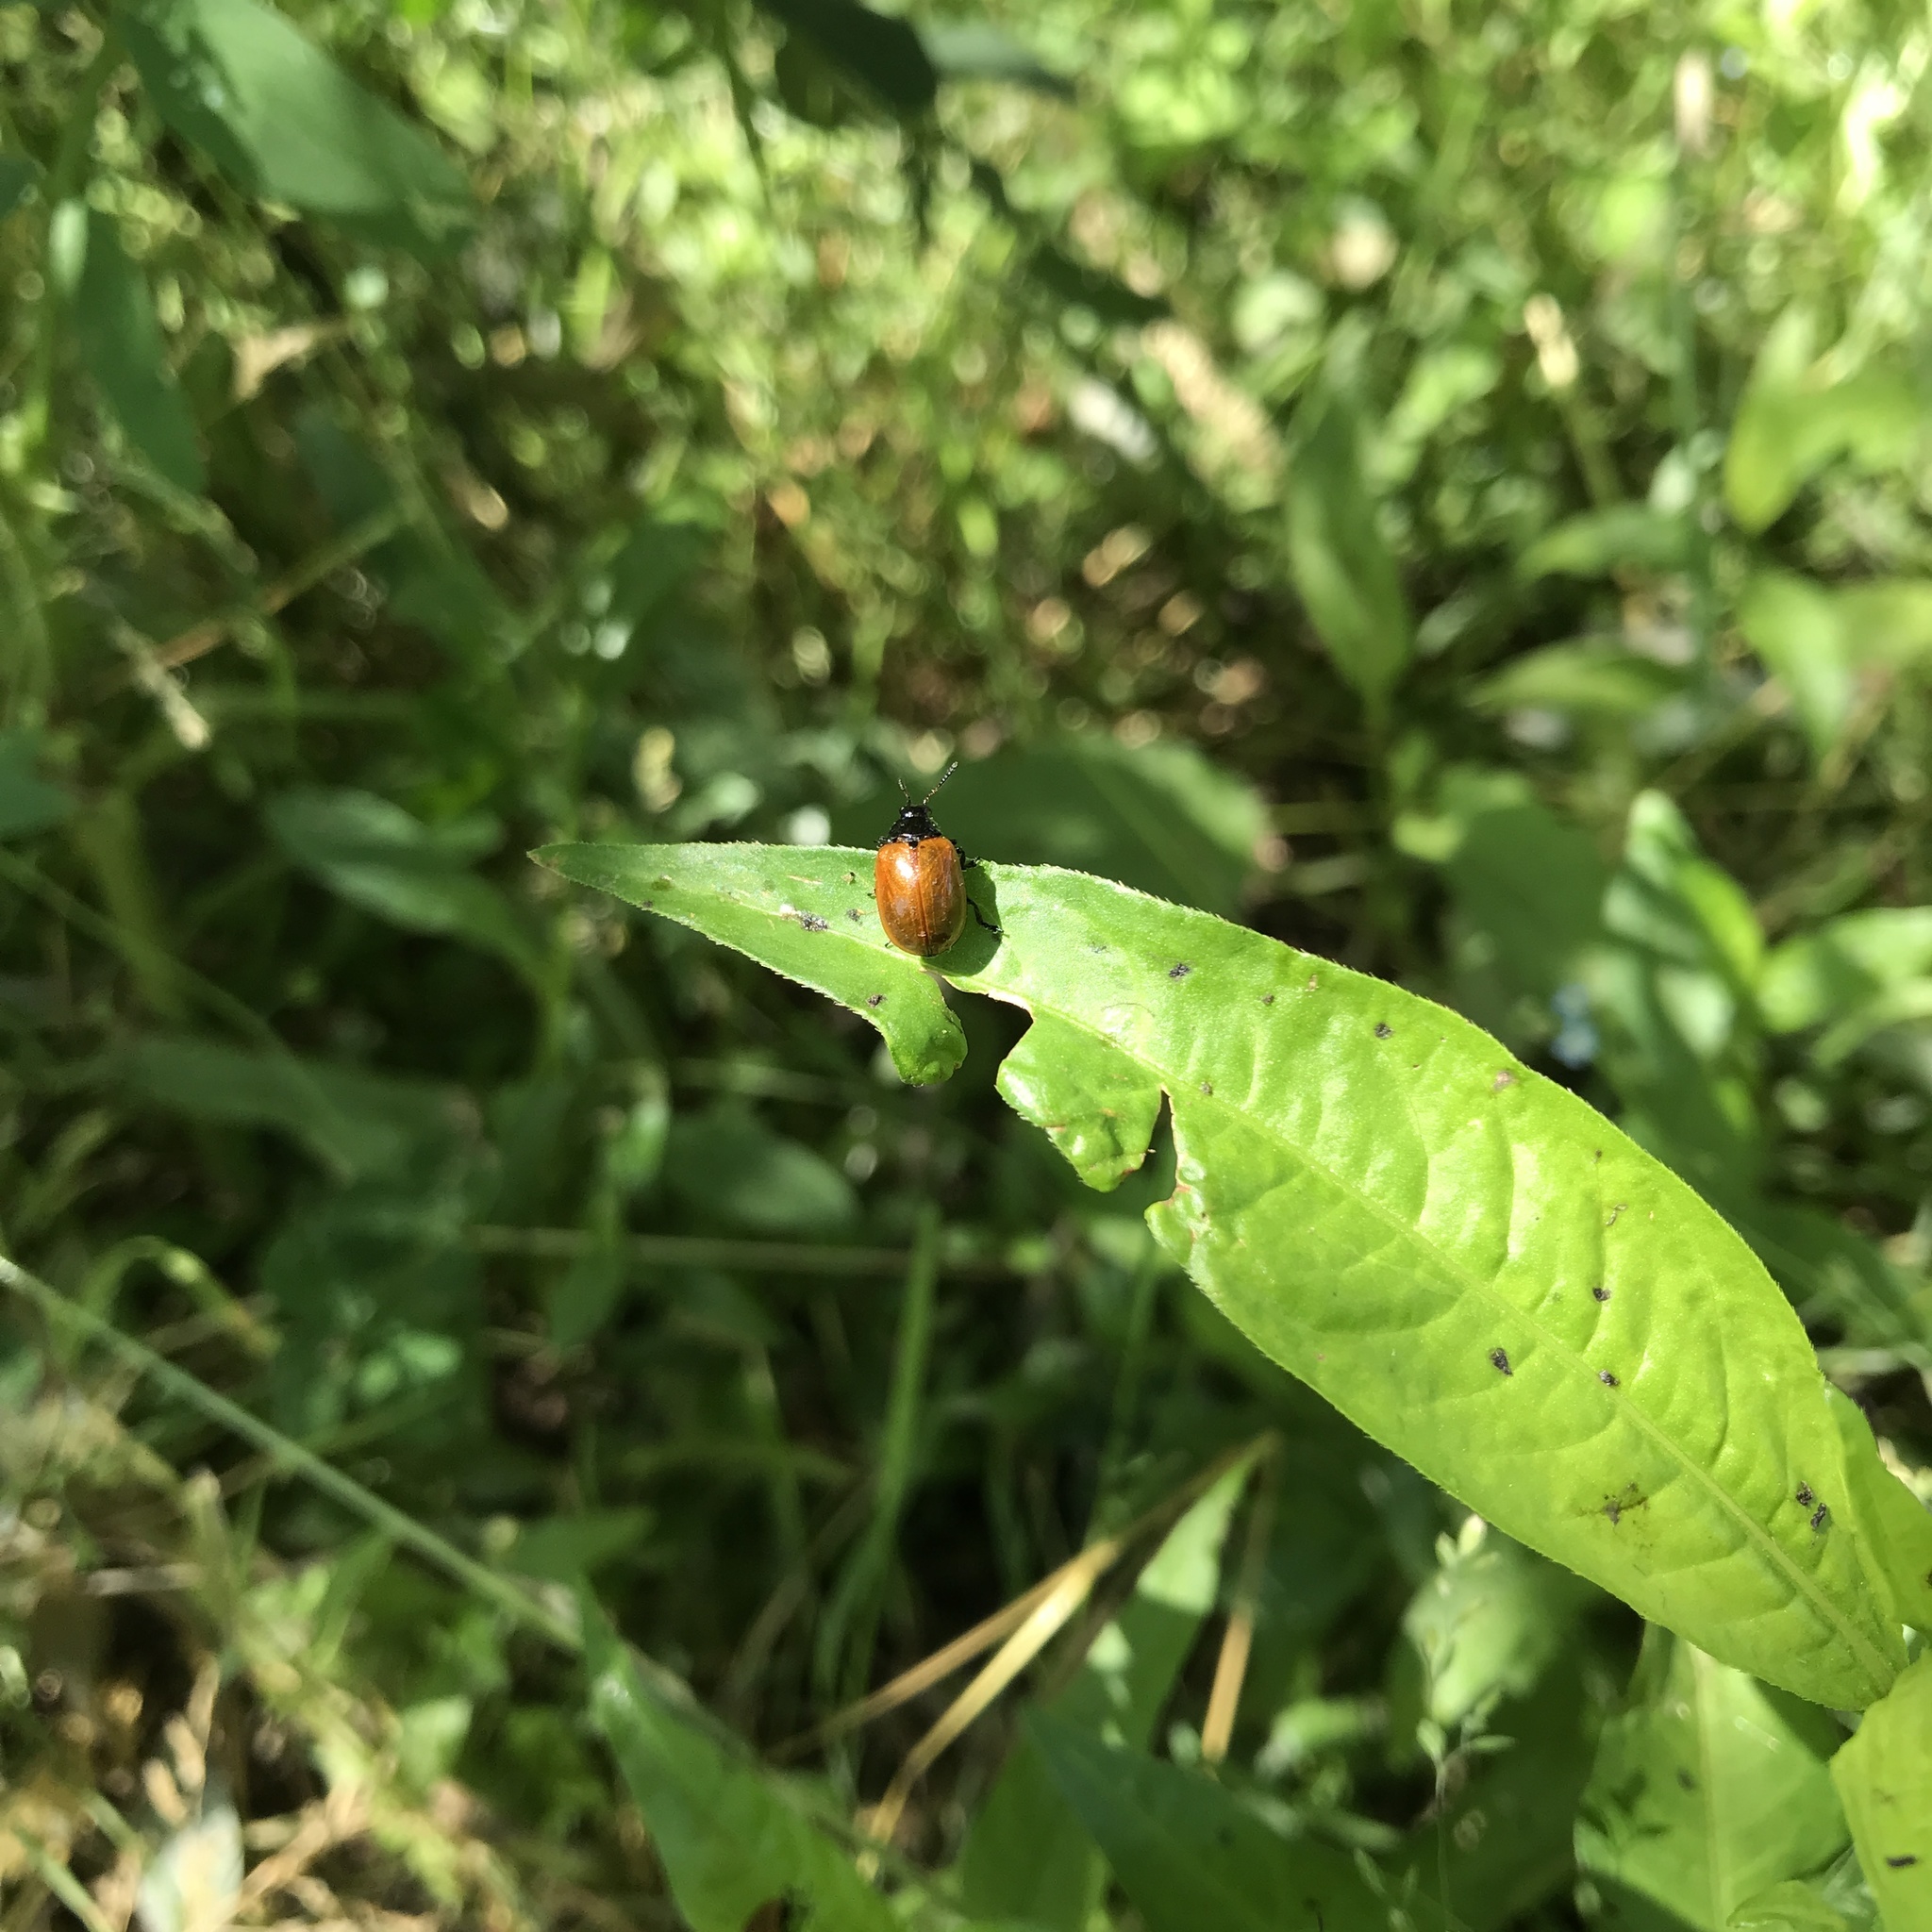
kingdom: Animalia
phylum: Arthropoda
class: Insecta
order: Coleoptera
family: Chrysomelidae
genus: Plagiodera
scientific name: Plagiodera
